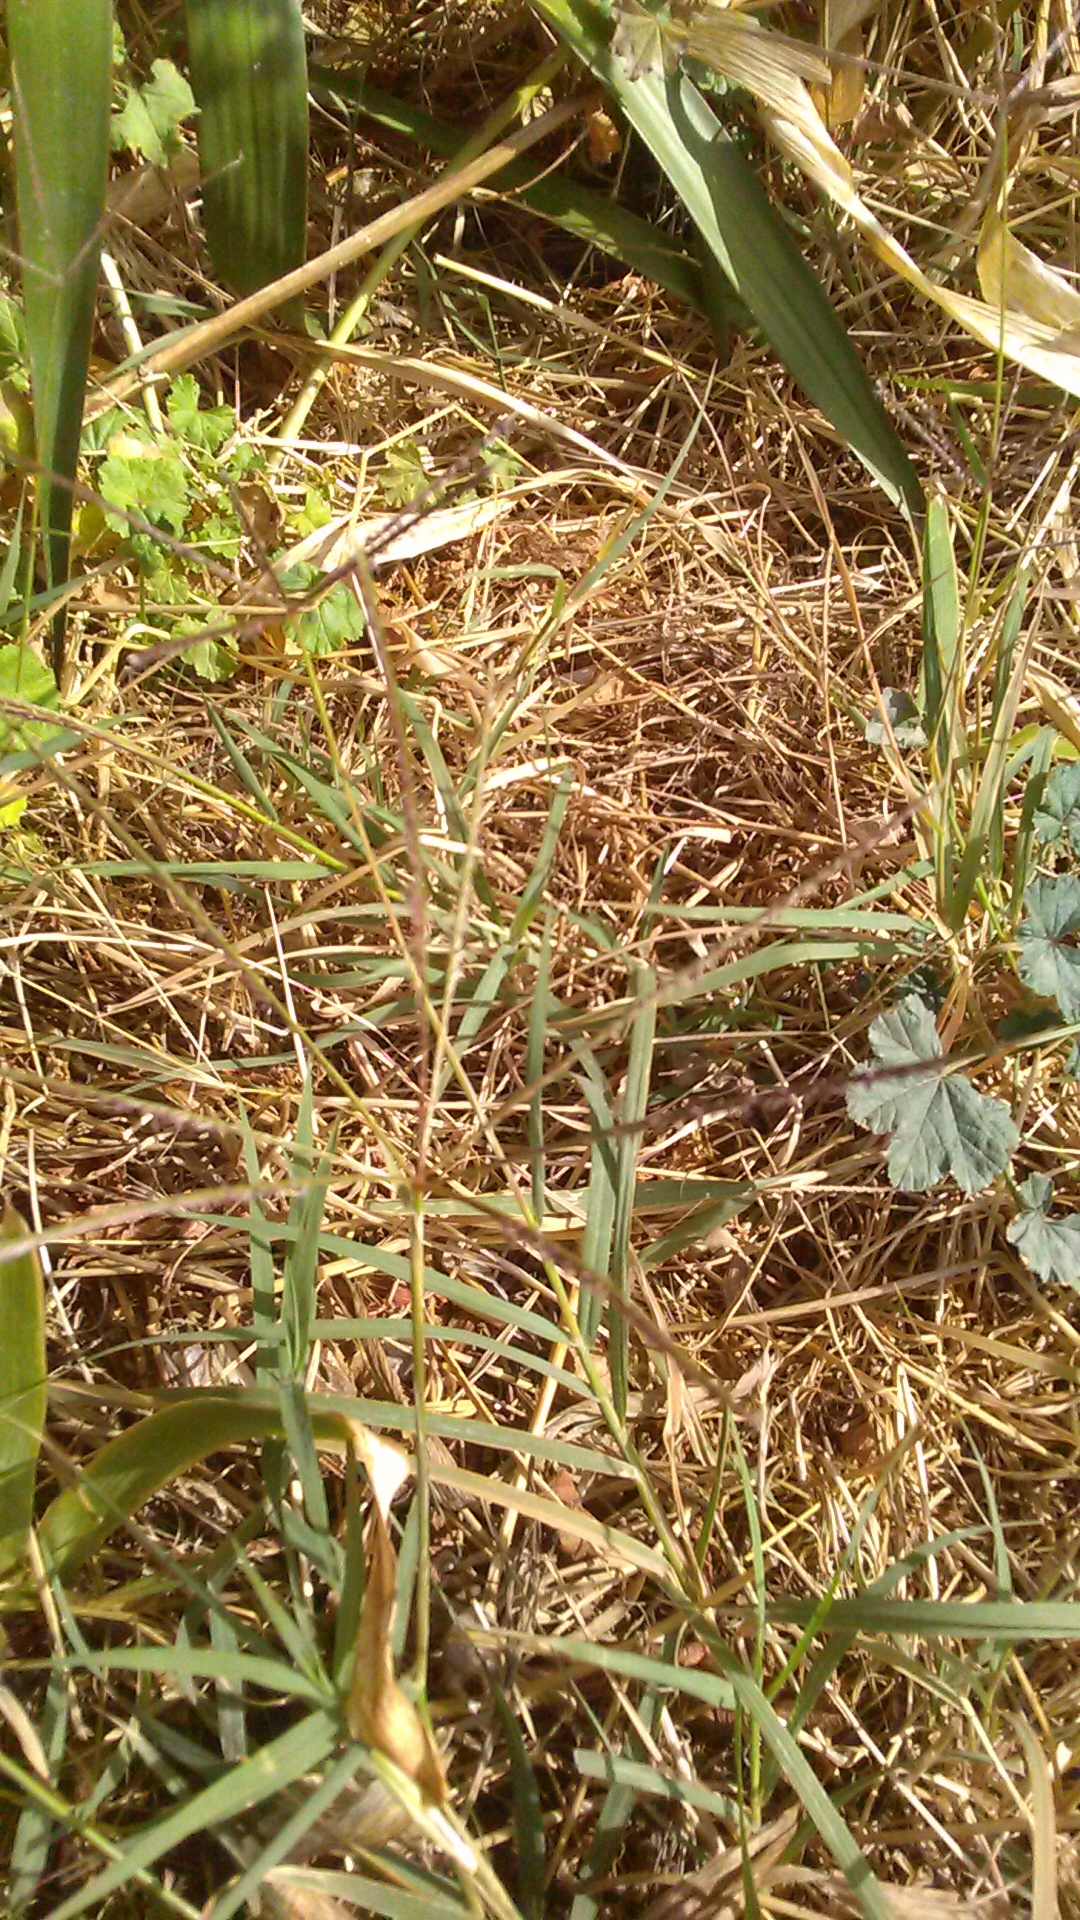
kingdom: Plantae
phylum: Tracheophyta
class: Liliopsida
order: Poales
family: Poaceae
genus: Cynodon
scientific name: Cynodon dactylon
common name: Bermuda grass
